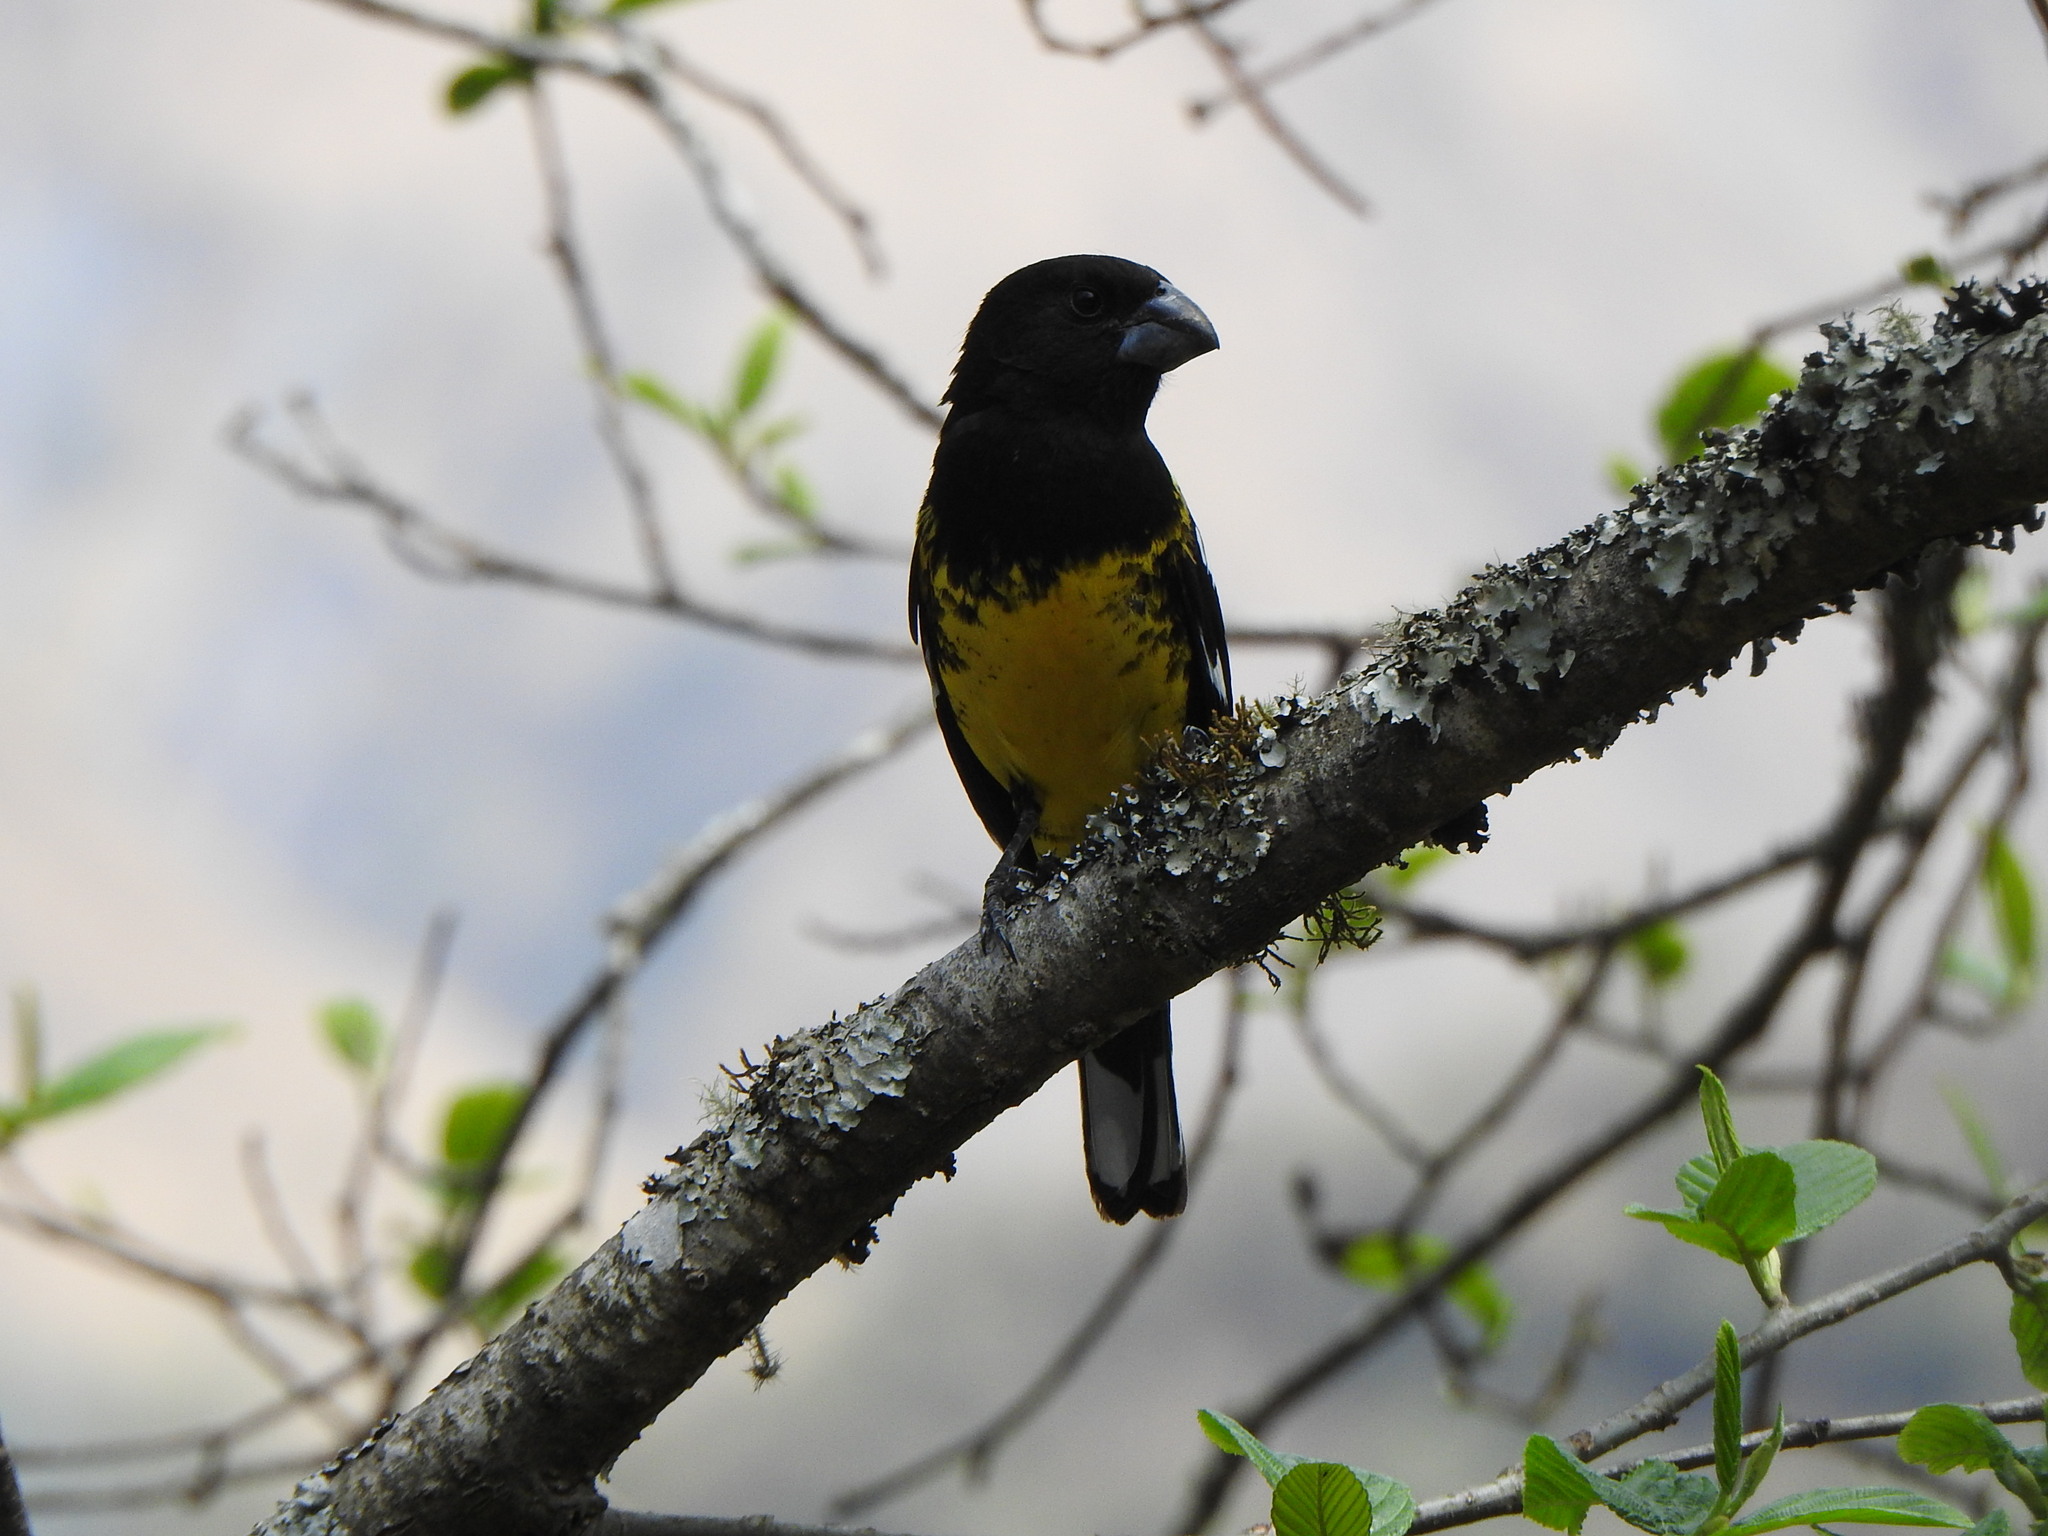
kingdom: Animalia
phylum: Chordata
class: Aves
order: Passeriformes
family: Cardinalidae
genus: Pheucticus
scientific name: Pheucticus aureoventris
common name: Black-backed grosbeak
